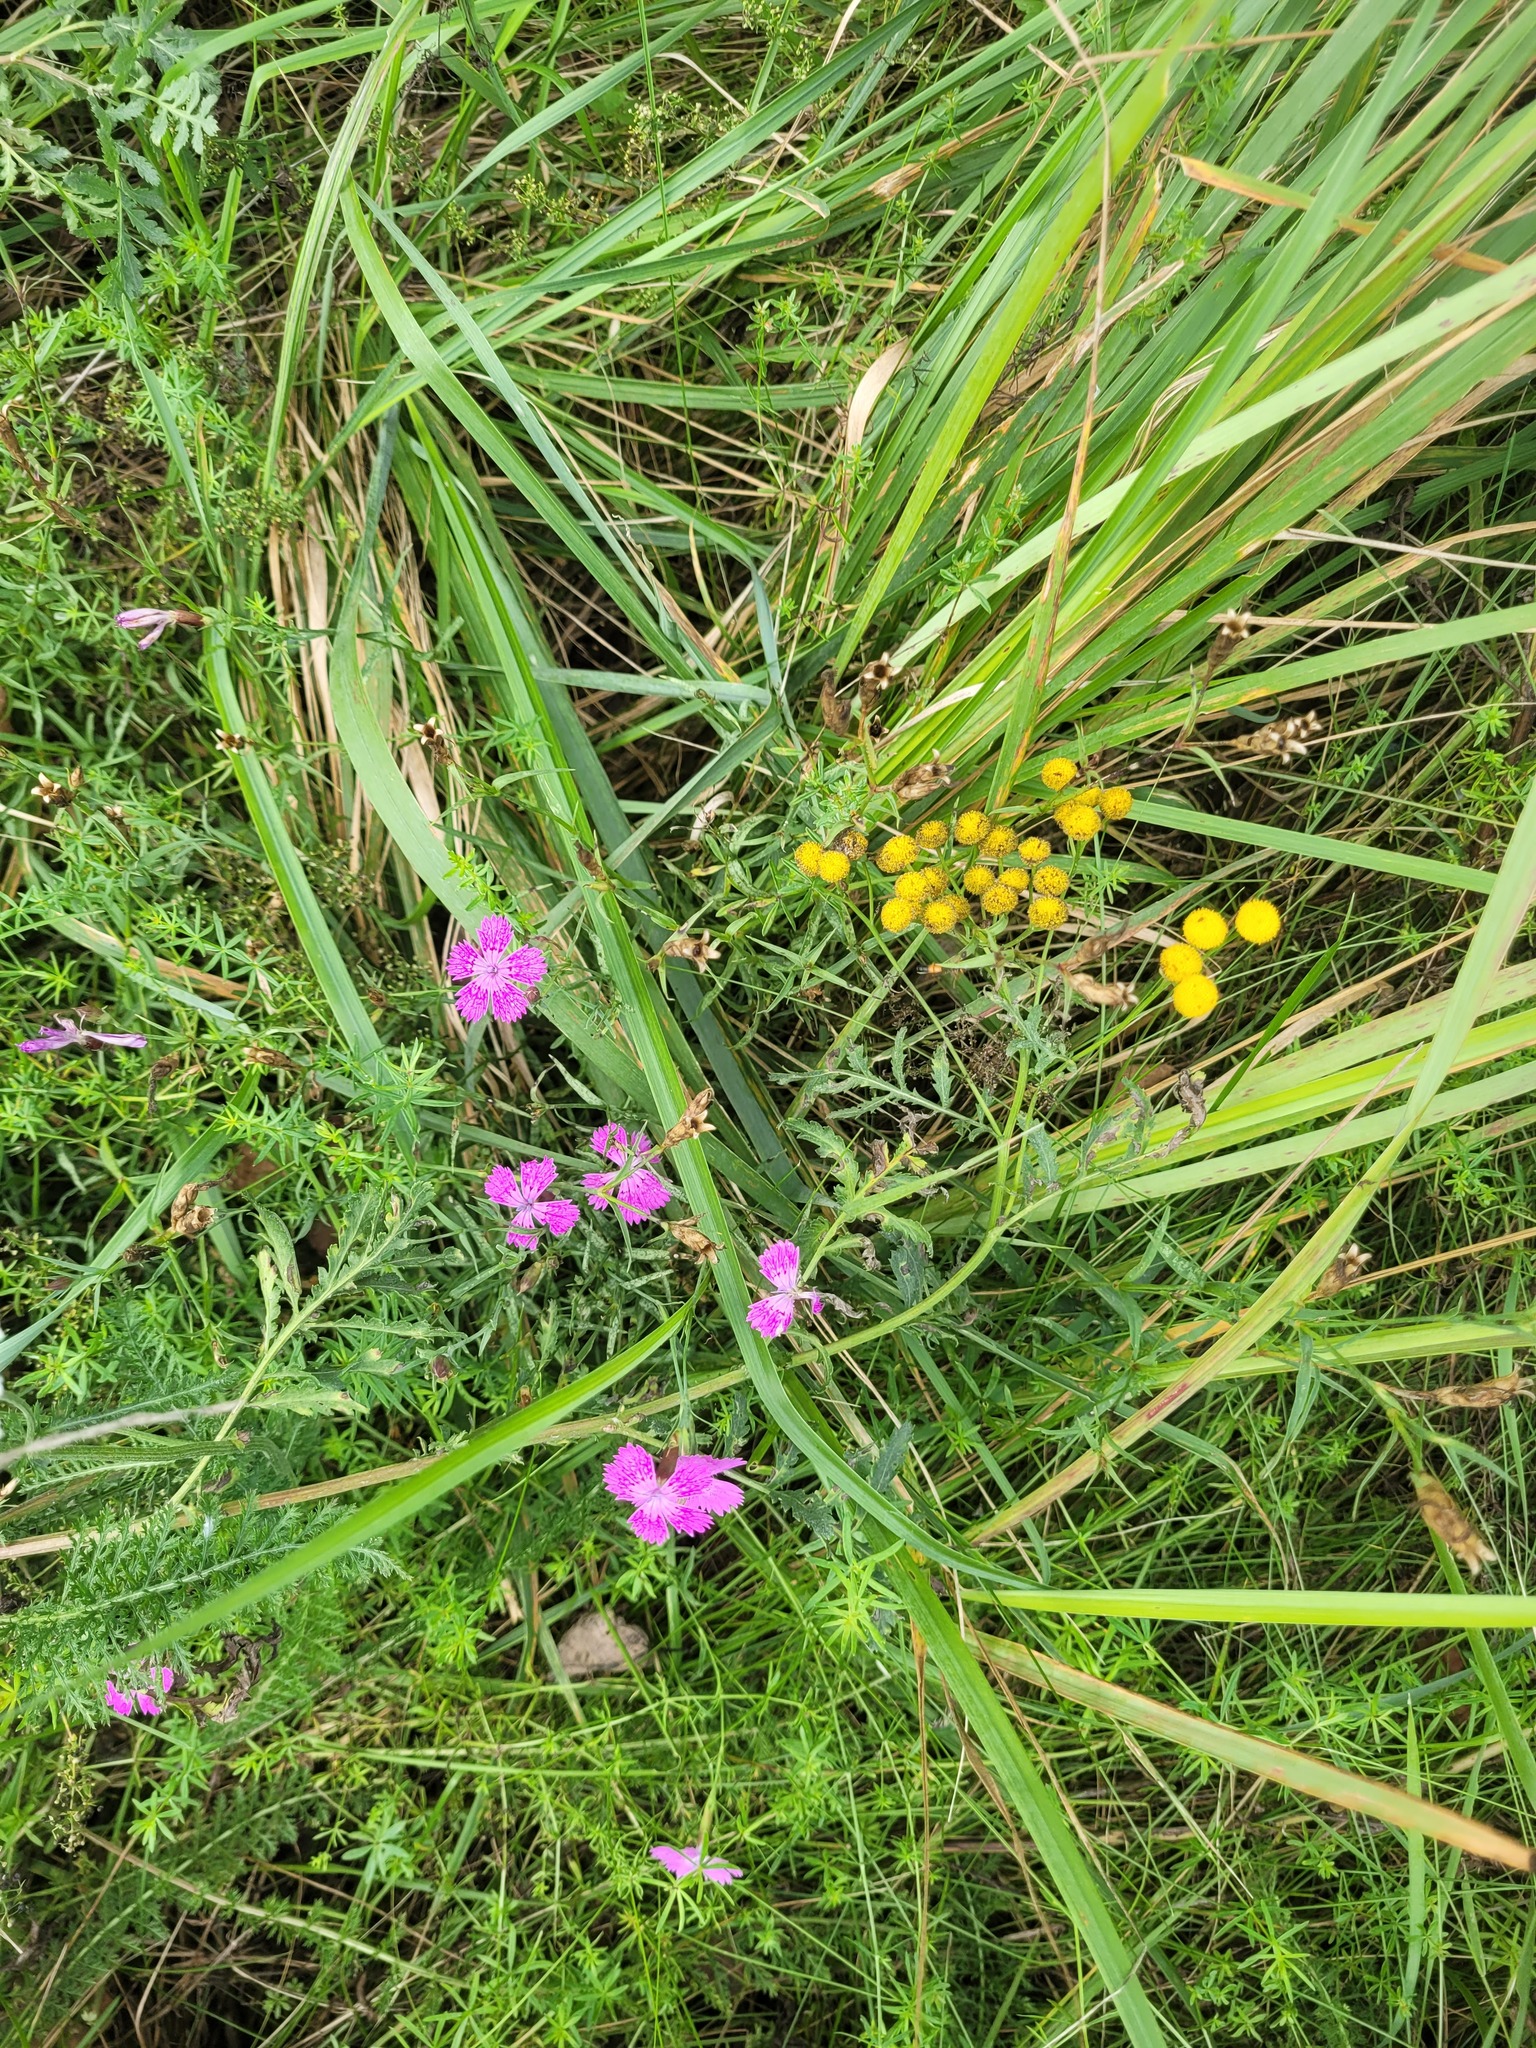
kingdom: Plantae
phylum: Tracheophyta
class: Magnoliopsida
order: Caryophyllales
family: Caryophyllaceae
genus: Dianthus
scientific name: Dianthus chinensis
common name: Rainbow pink
